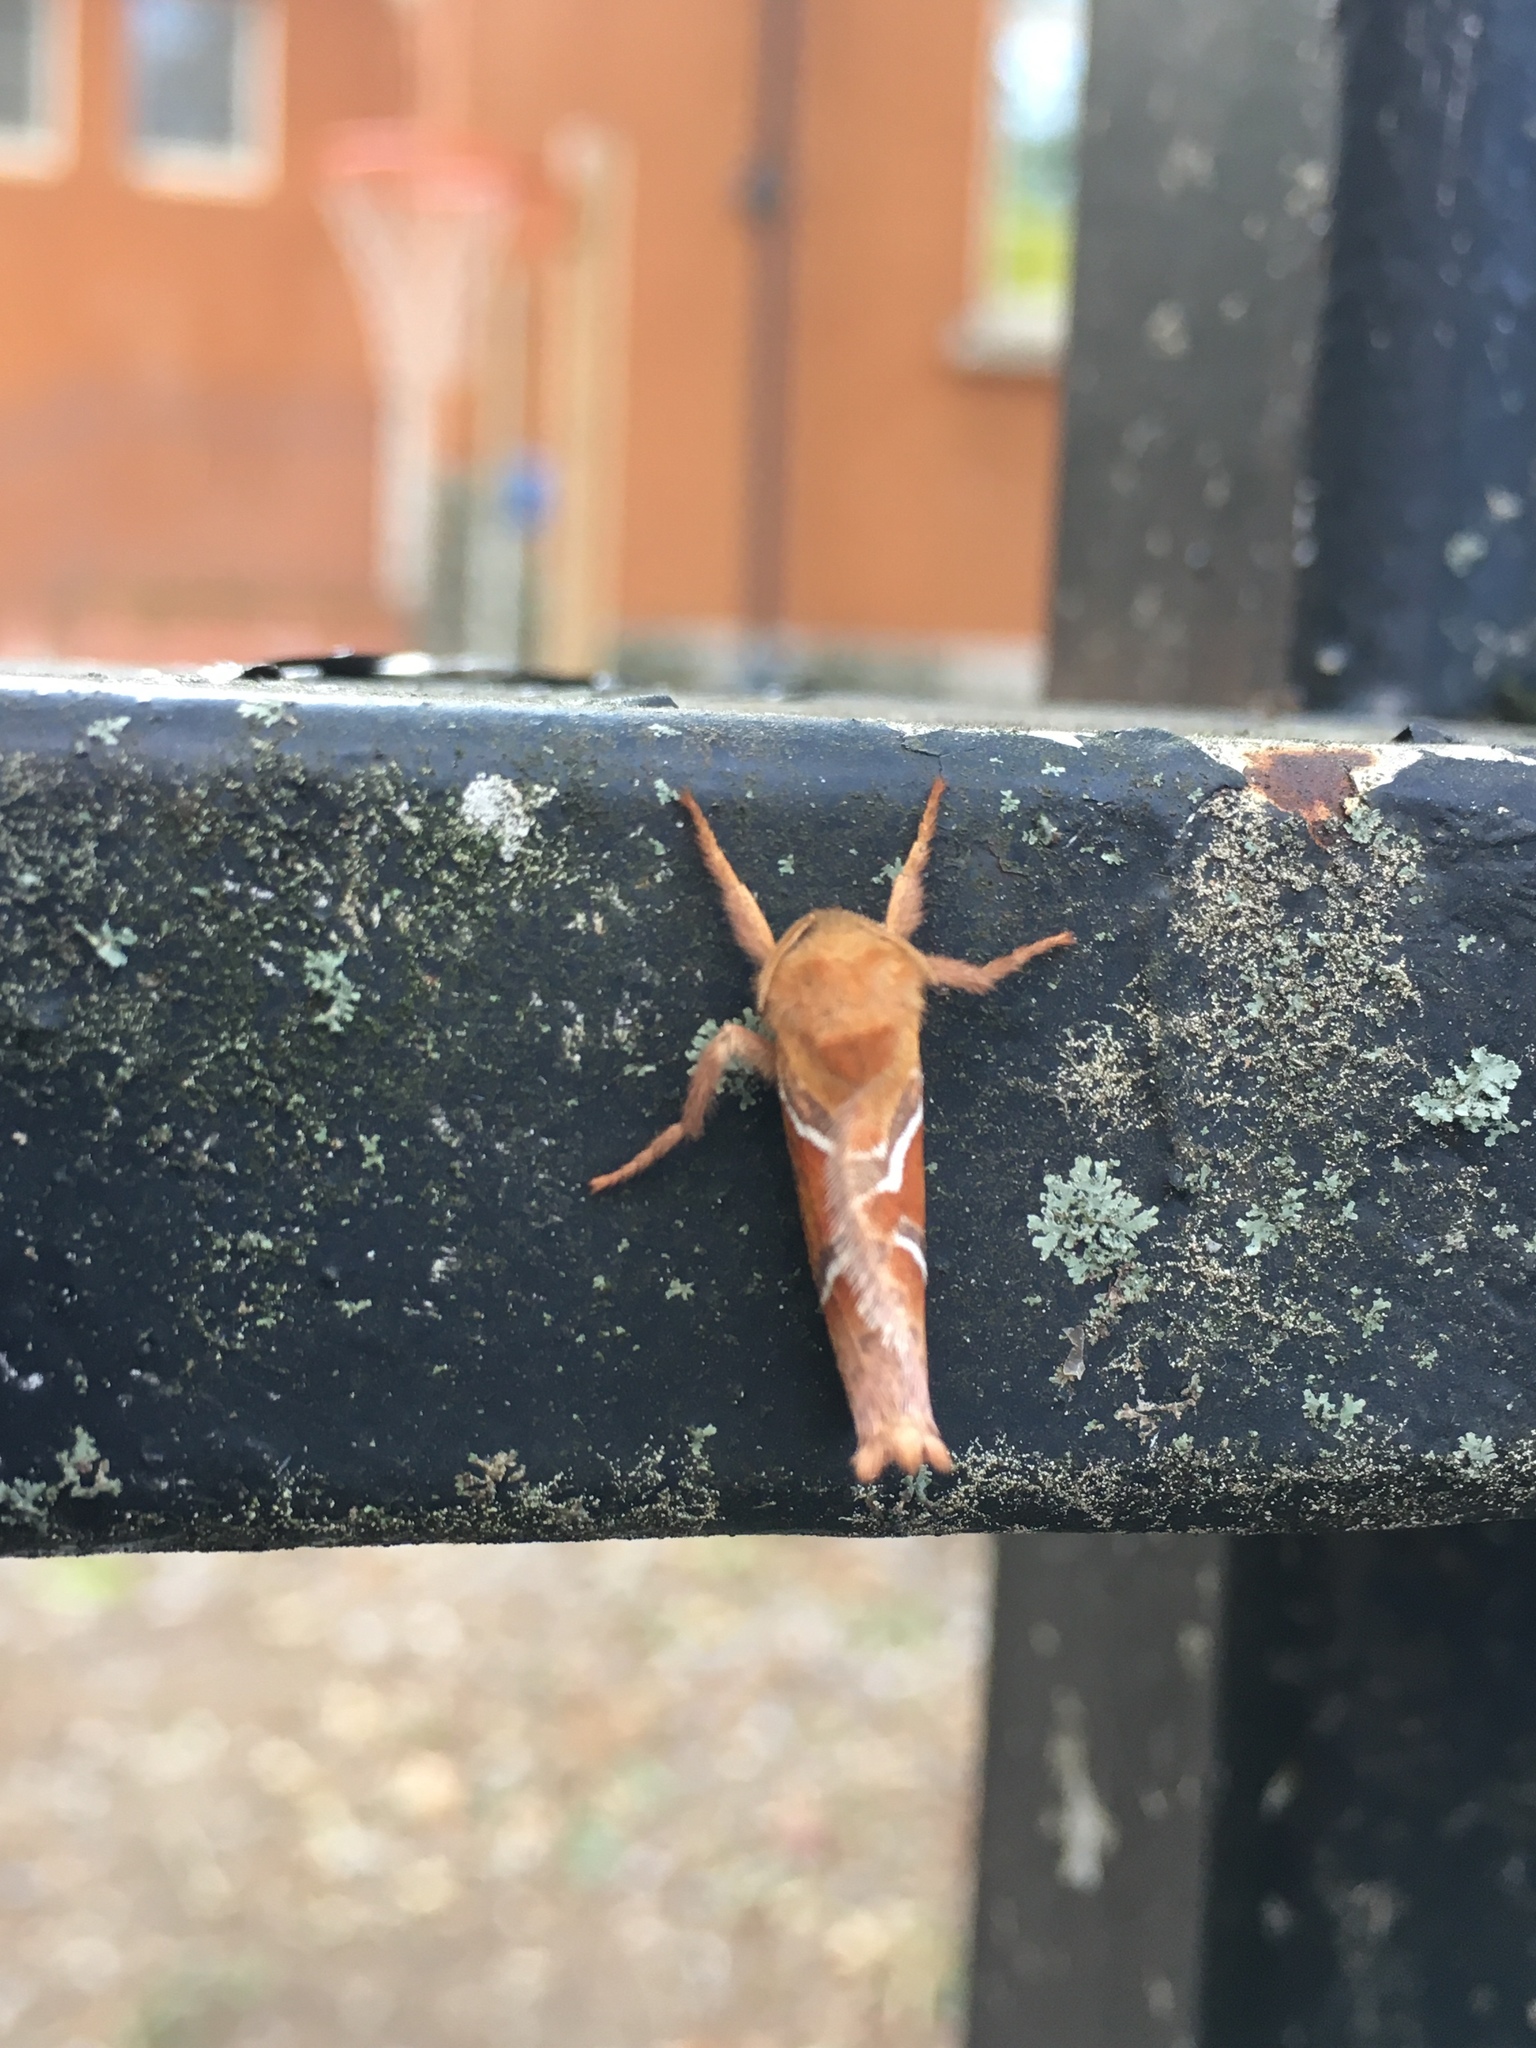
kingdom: Animalia
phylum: Arthropoda
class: Insecta
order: Lepidoptera
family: Hepialidae
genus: Triodia
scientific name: Triodia sylvina
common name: Orange swift
